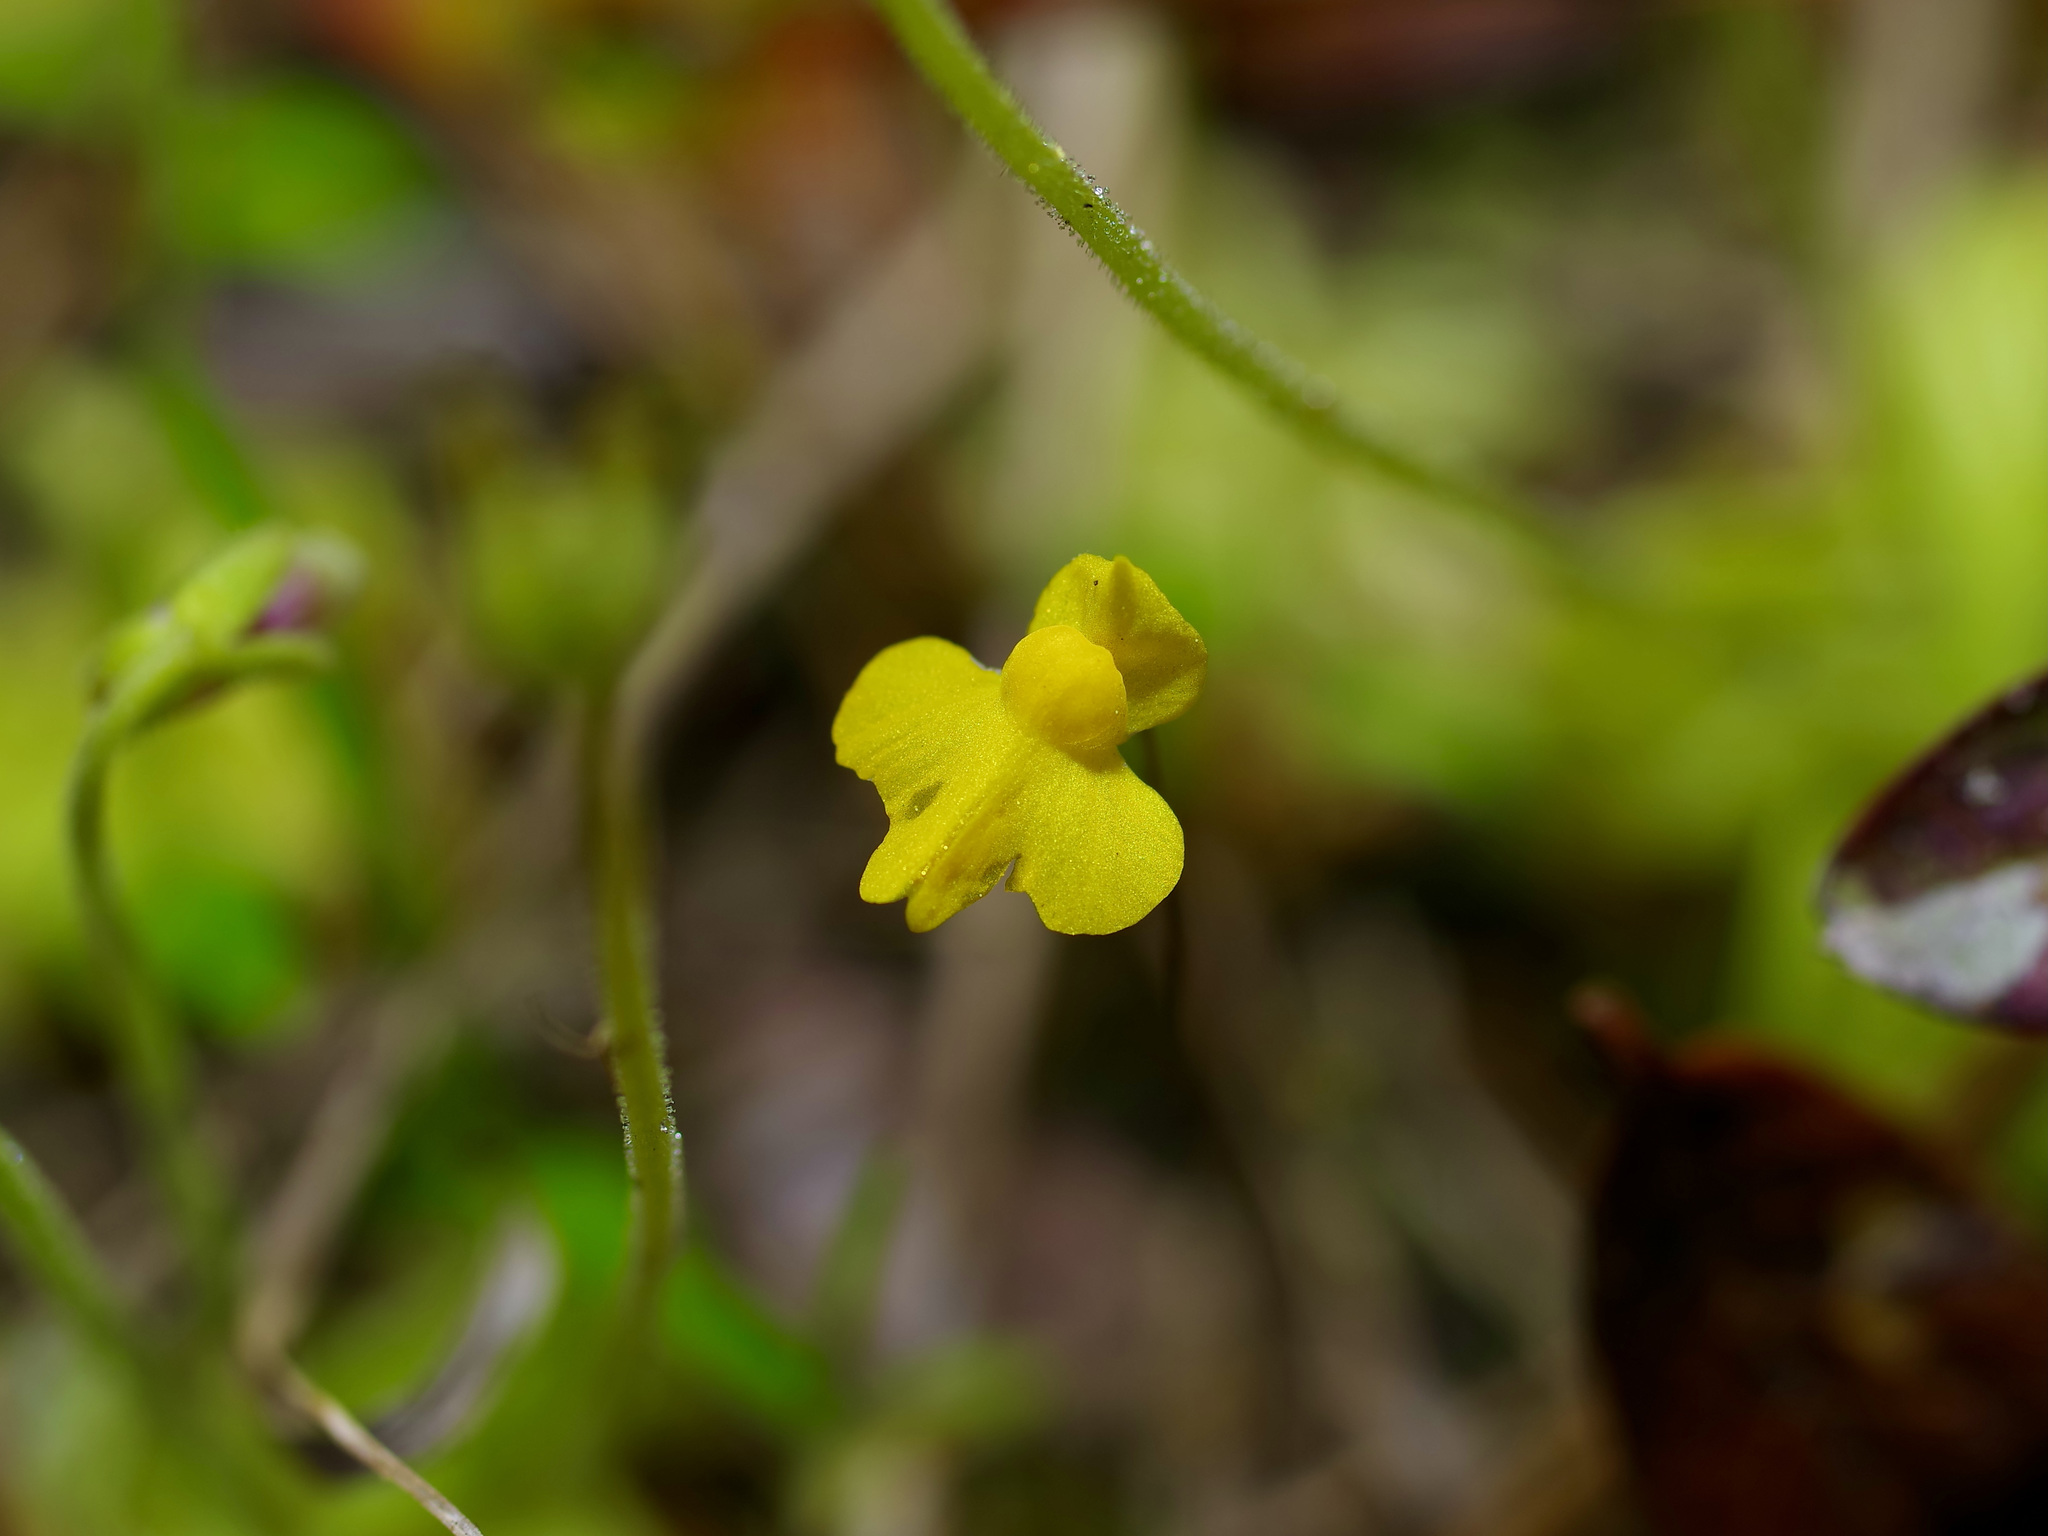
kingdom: Plantae
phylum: Tracheophyta
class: Magnoliopsida
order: Lamiales
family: Lentibulariaceae
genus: Utricularia
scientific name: Utricularia subulata
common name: Tiny bladderwort
